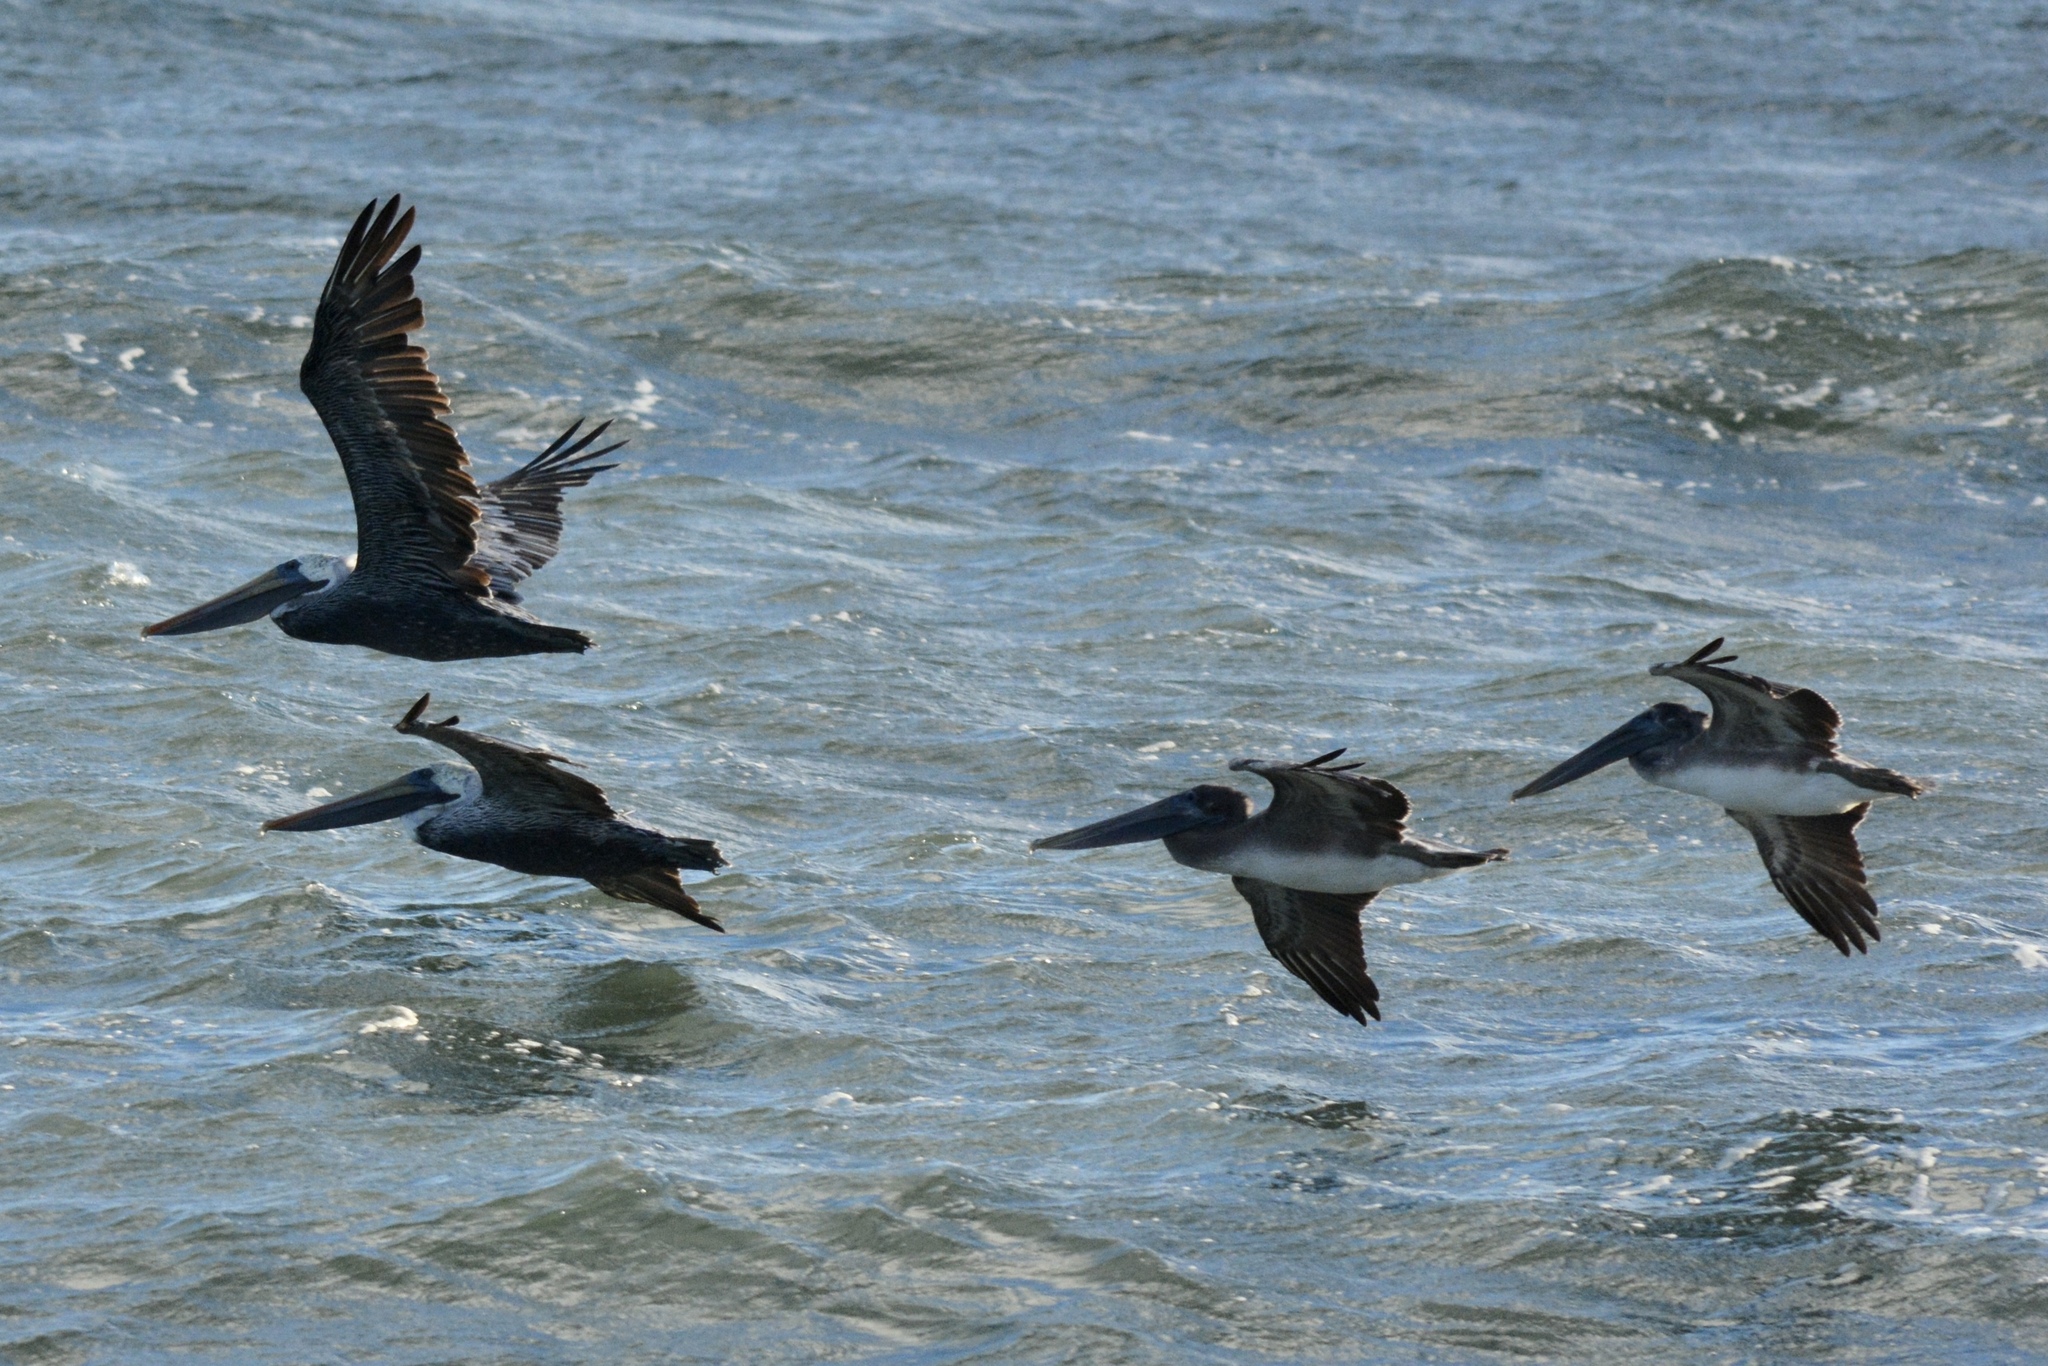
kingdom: Animalia
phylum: Chordata
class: Aves
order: Pelecaniformes
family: Pelecanidae
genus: Pelecanus
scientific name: Pelecanus occidentalis
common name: Brown pelican
